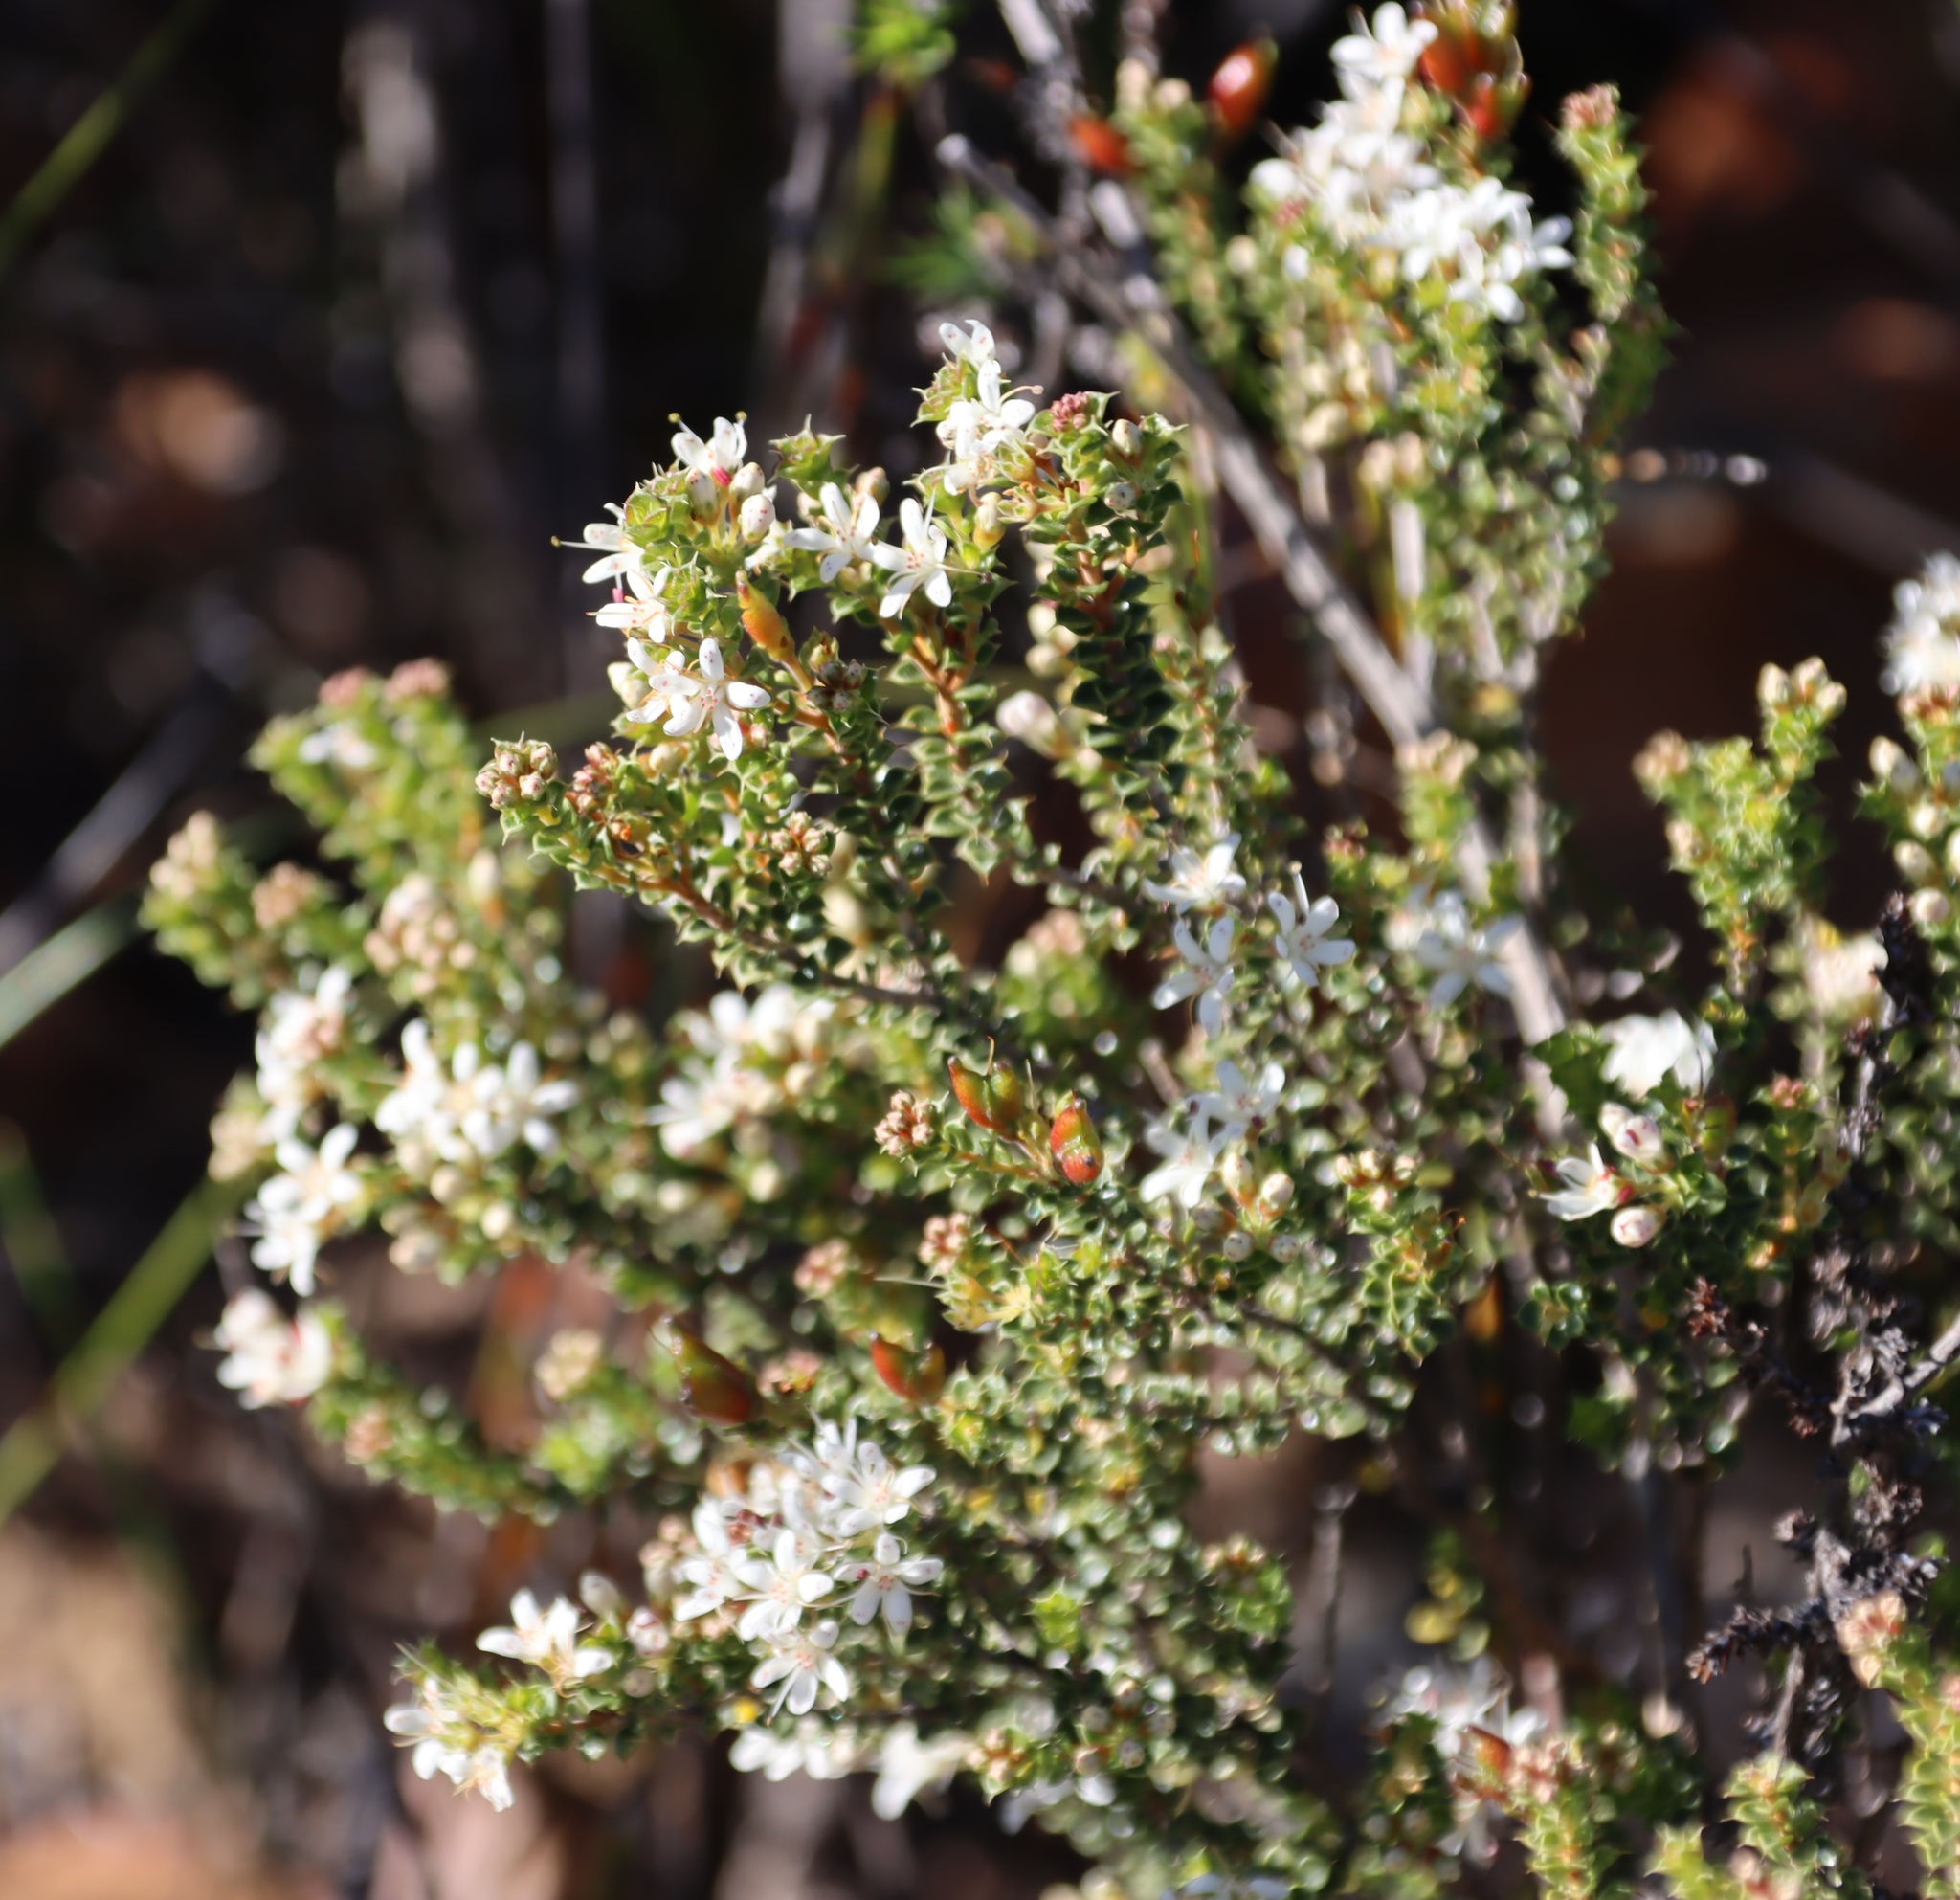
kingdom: Plantae
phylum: Tracheophyta
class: Magnoliopsida
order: Sapindales
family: Rutaceae
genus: Agathosma
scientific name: Agathosma recurvifolia
